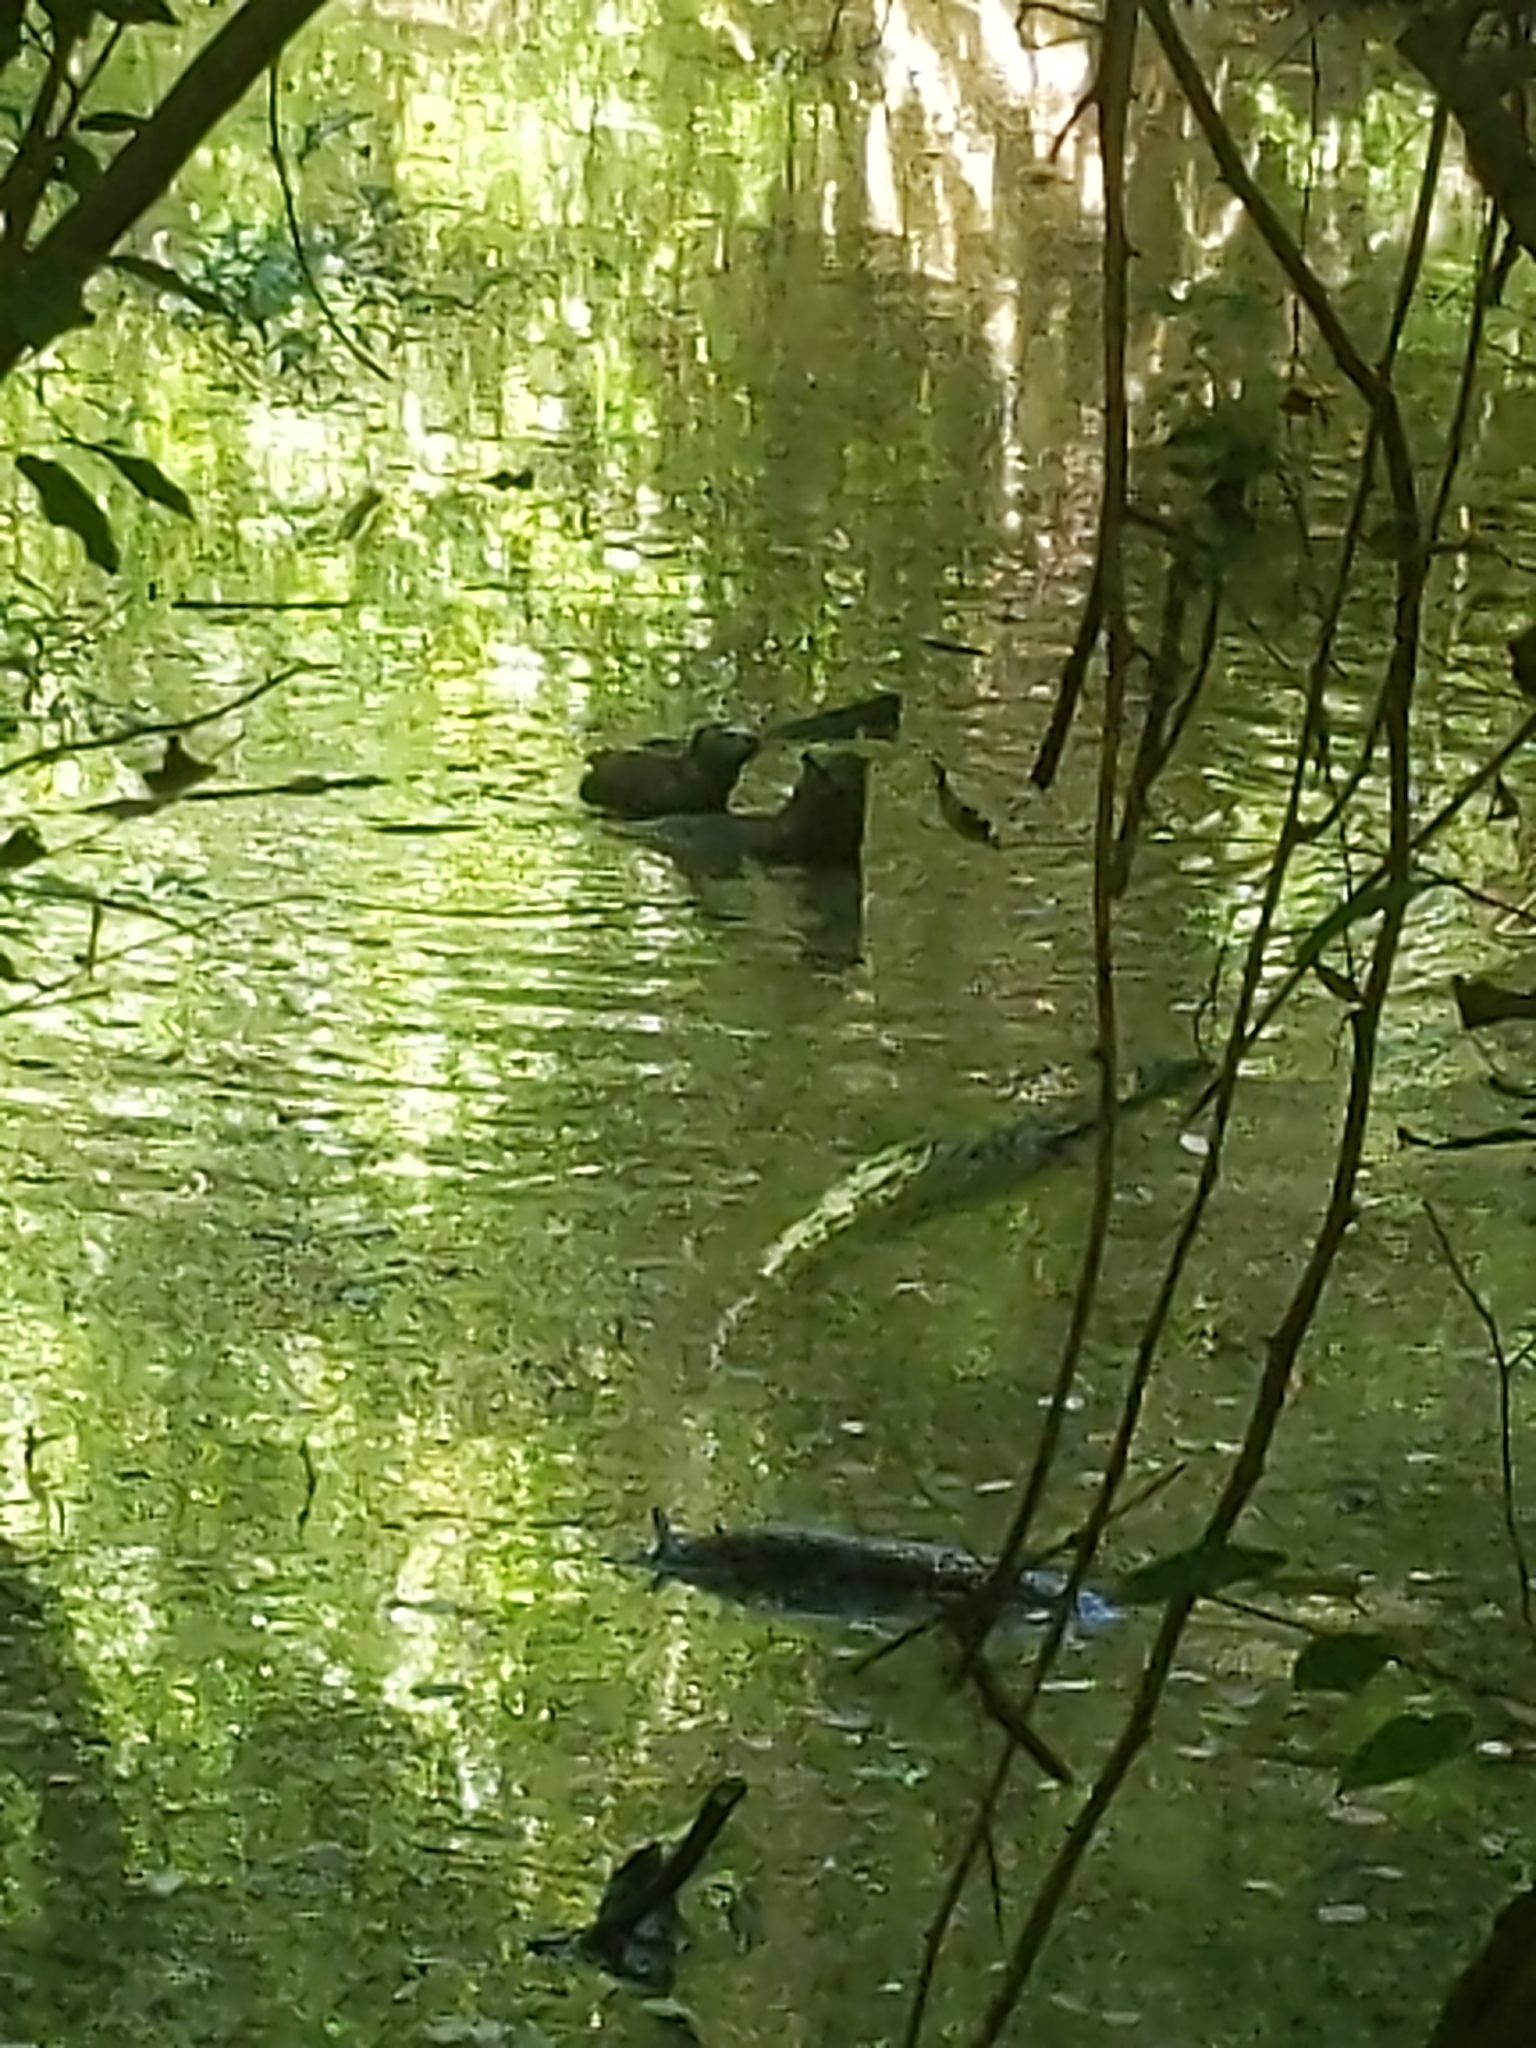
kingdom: Animalia
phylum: Chordata
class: Mammalia
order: Carnivora
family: Mustelidae
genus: Lontra
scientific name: Lontra canadensis
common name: North american river otter
